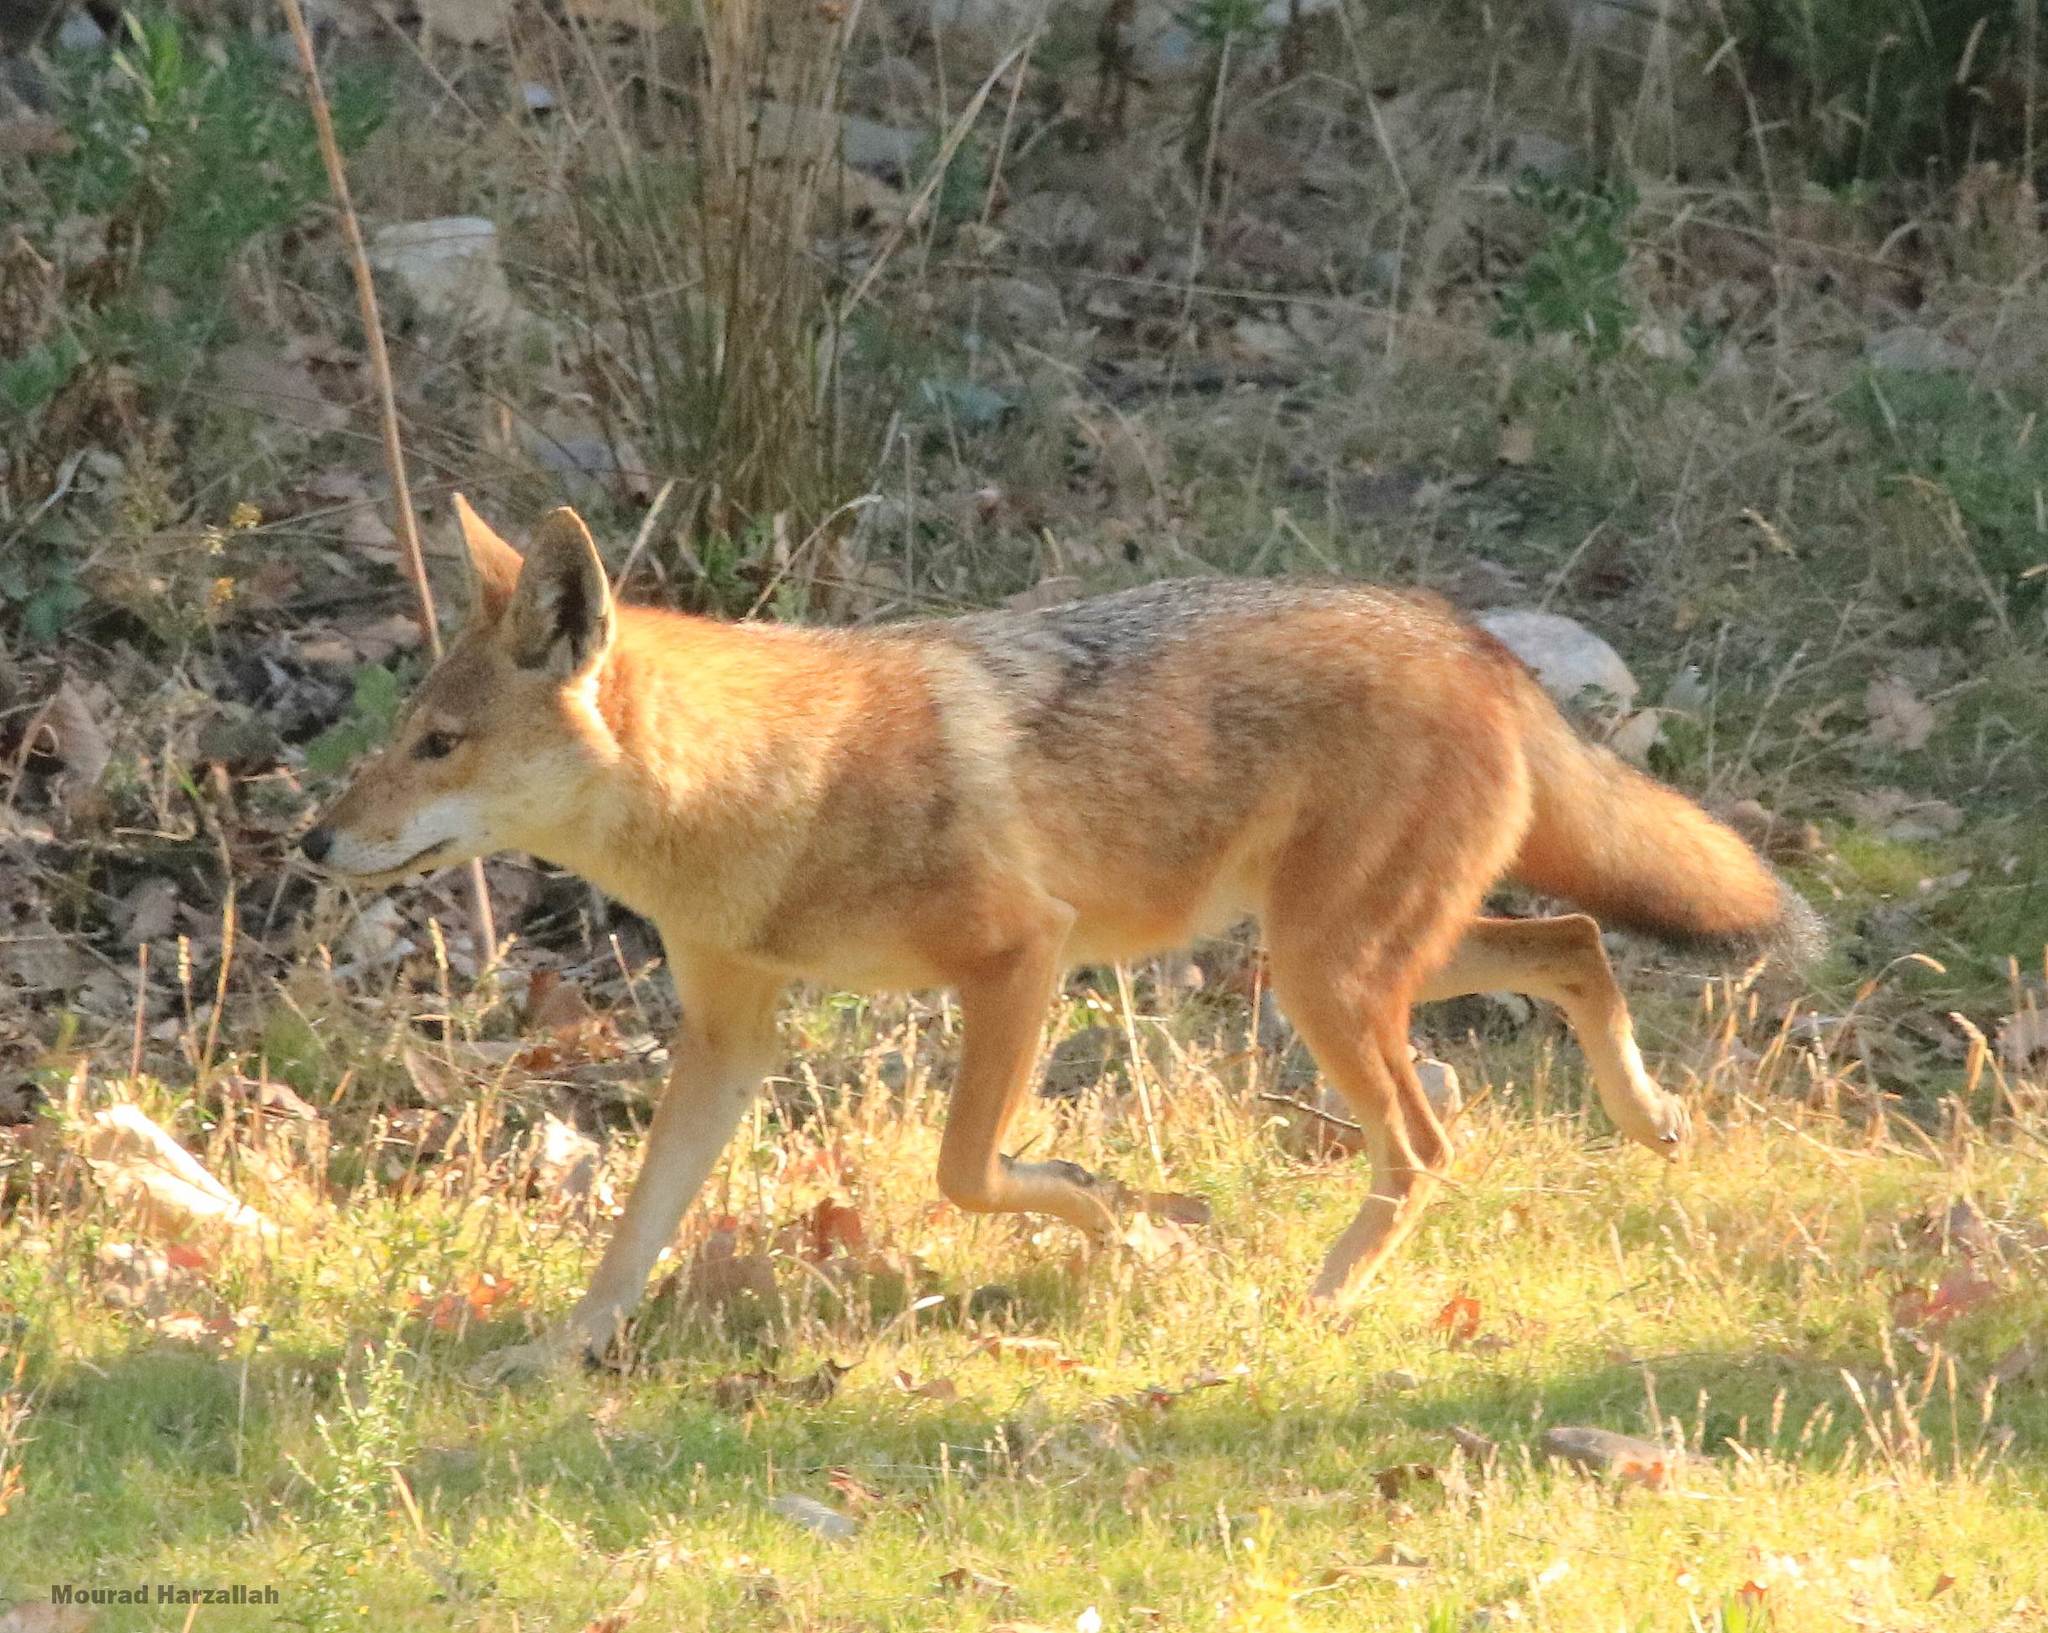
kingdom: Animalia
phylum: Chordata
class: Mammalia
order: Carnivora
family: Canidae
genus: Canis
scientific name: Canis lupaster
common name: African golden wolf
